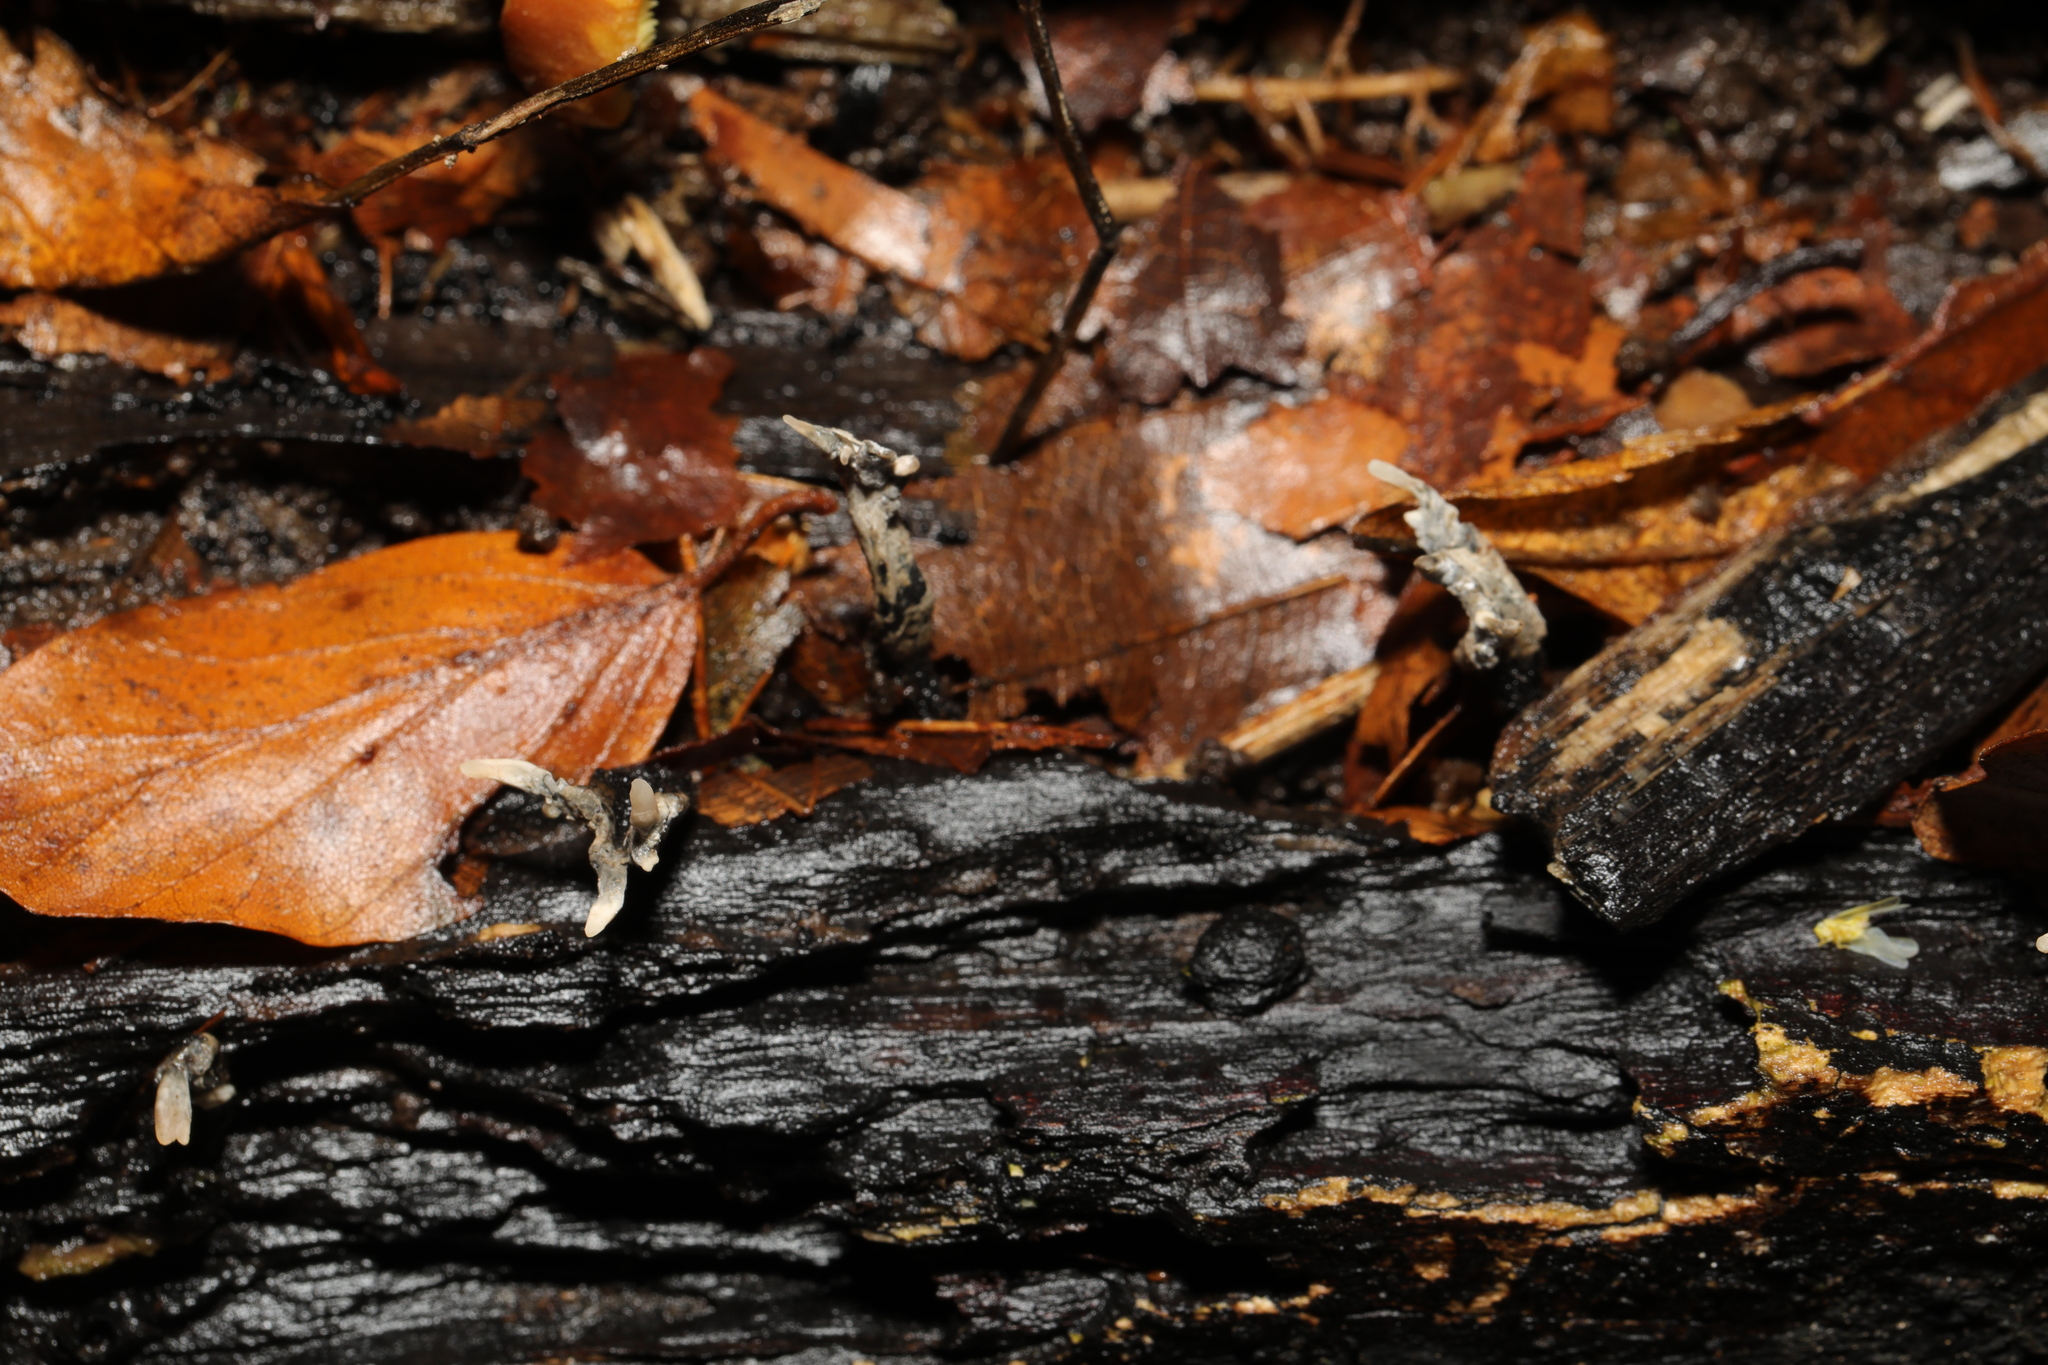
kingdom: Fungi
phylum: Ascomycota
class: Sordariomycetes
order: Xylariales
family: Xylariaceae
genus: Xylaria
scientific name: Xylaria hypoxylon
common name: Candle-snuff fungus
